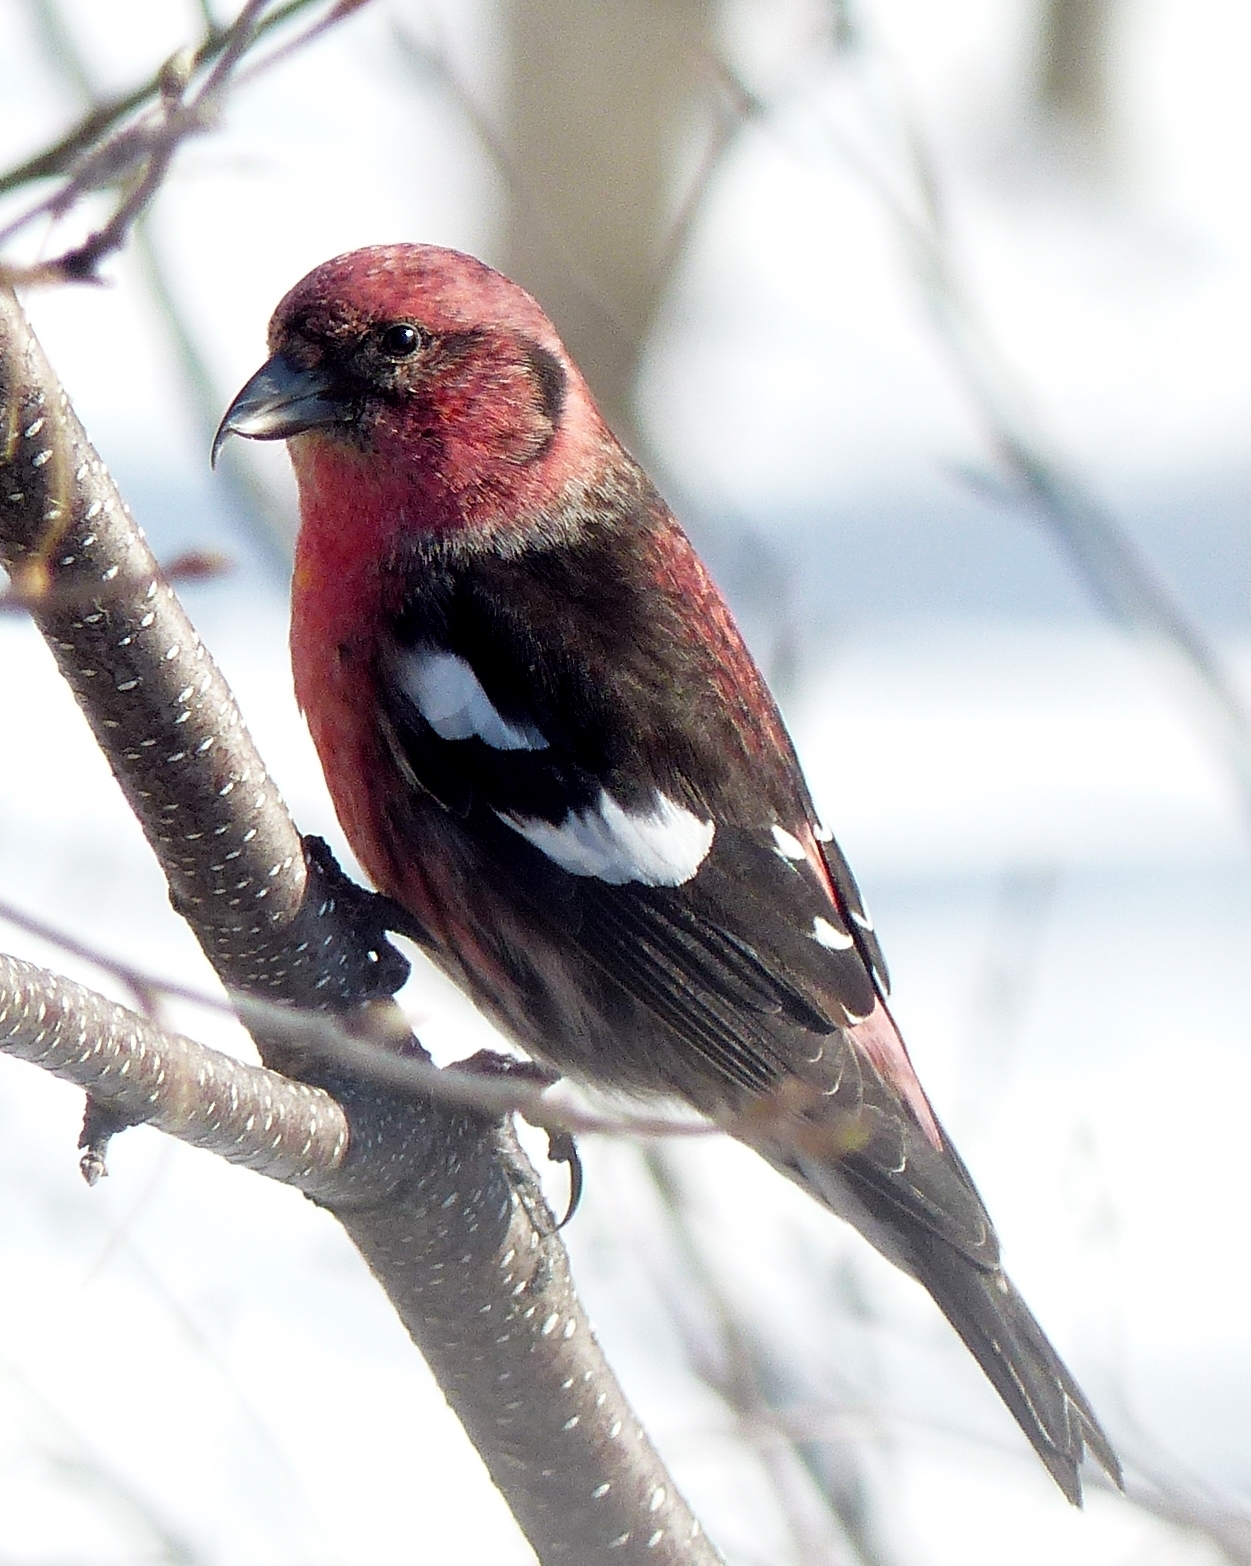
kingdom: Animalia
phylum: Chordata
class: Aves
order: Passeriformes
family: Fringillidae
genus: Loxia
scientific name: Loxia leucoptera
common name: Two-barred crossbill
